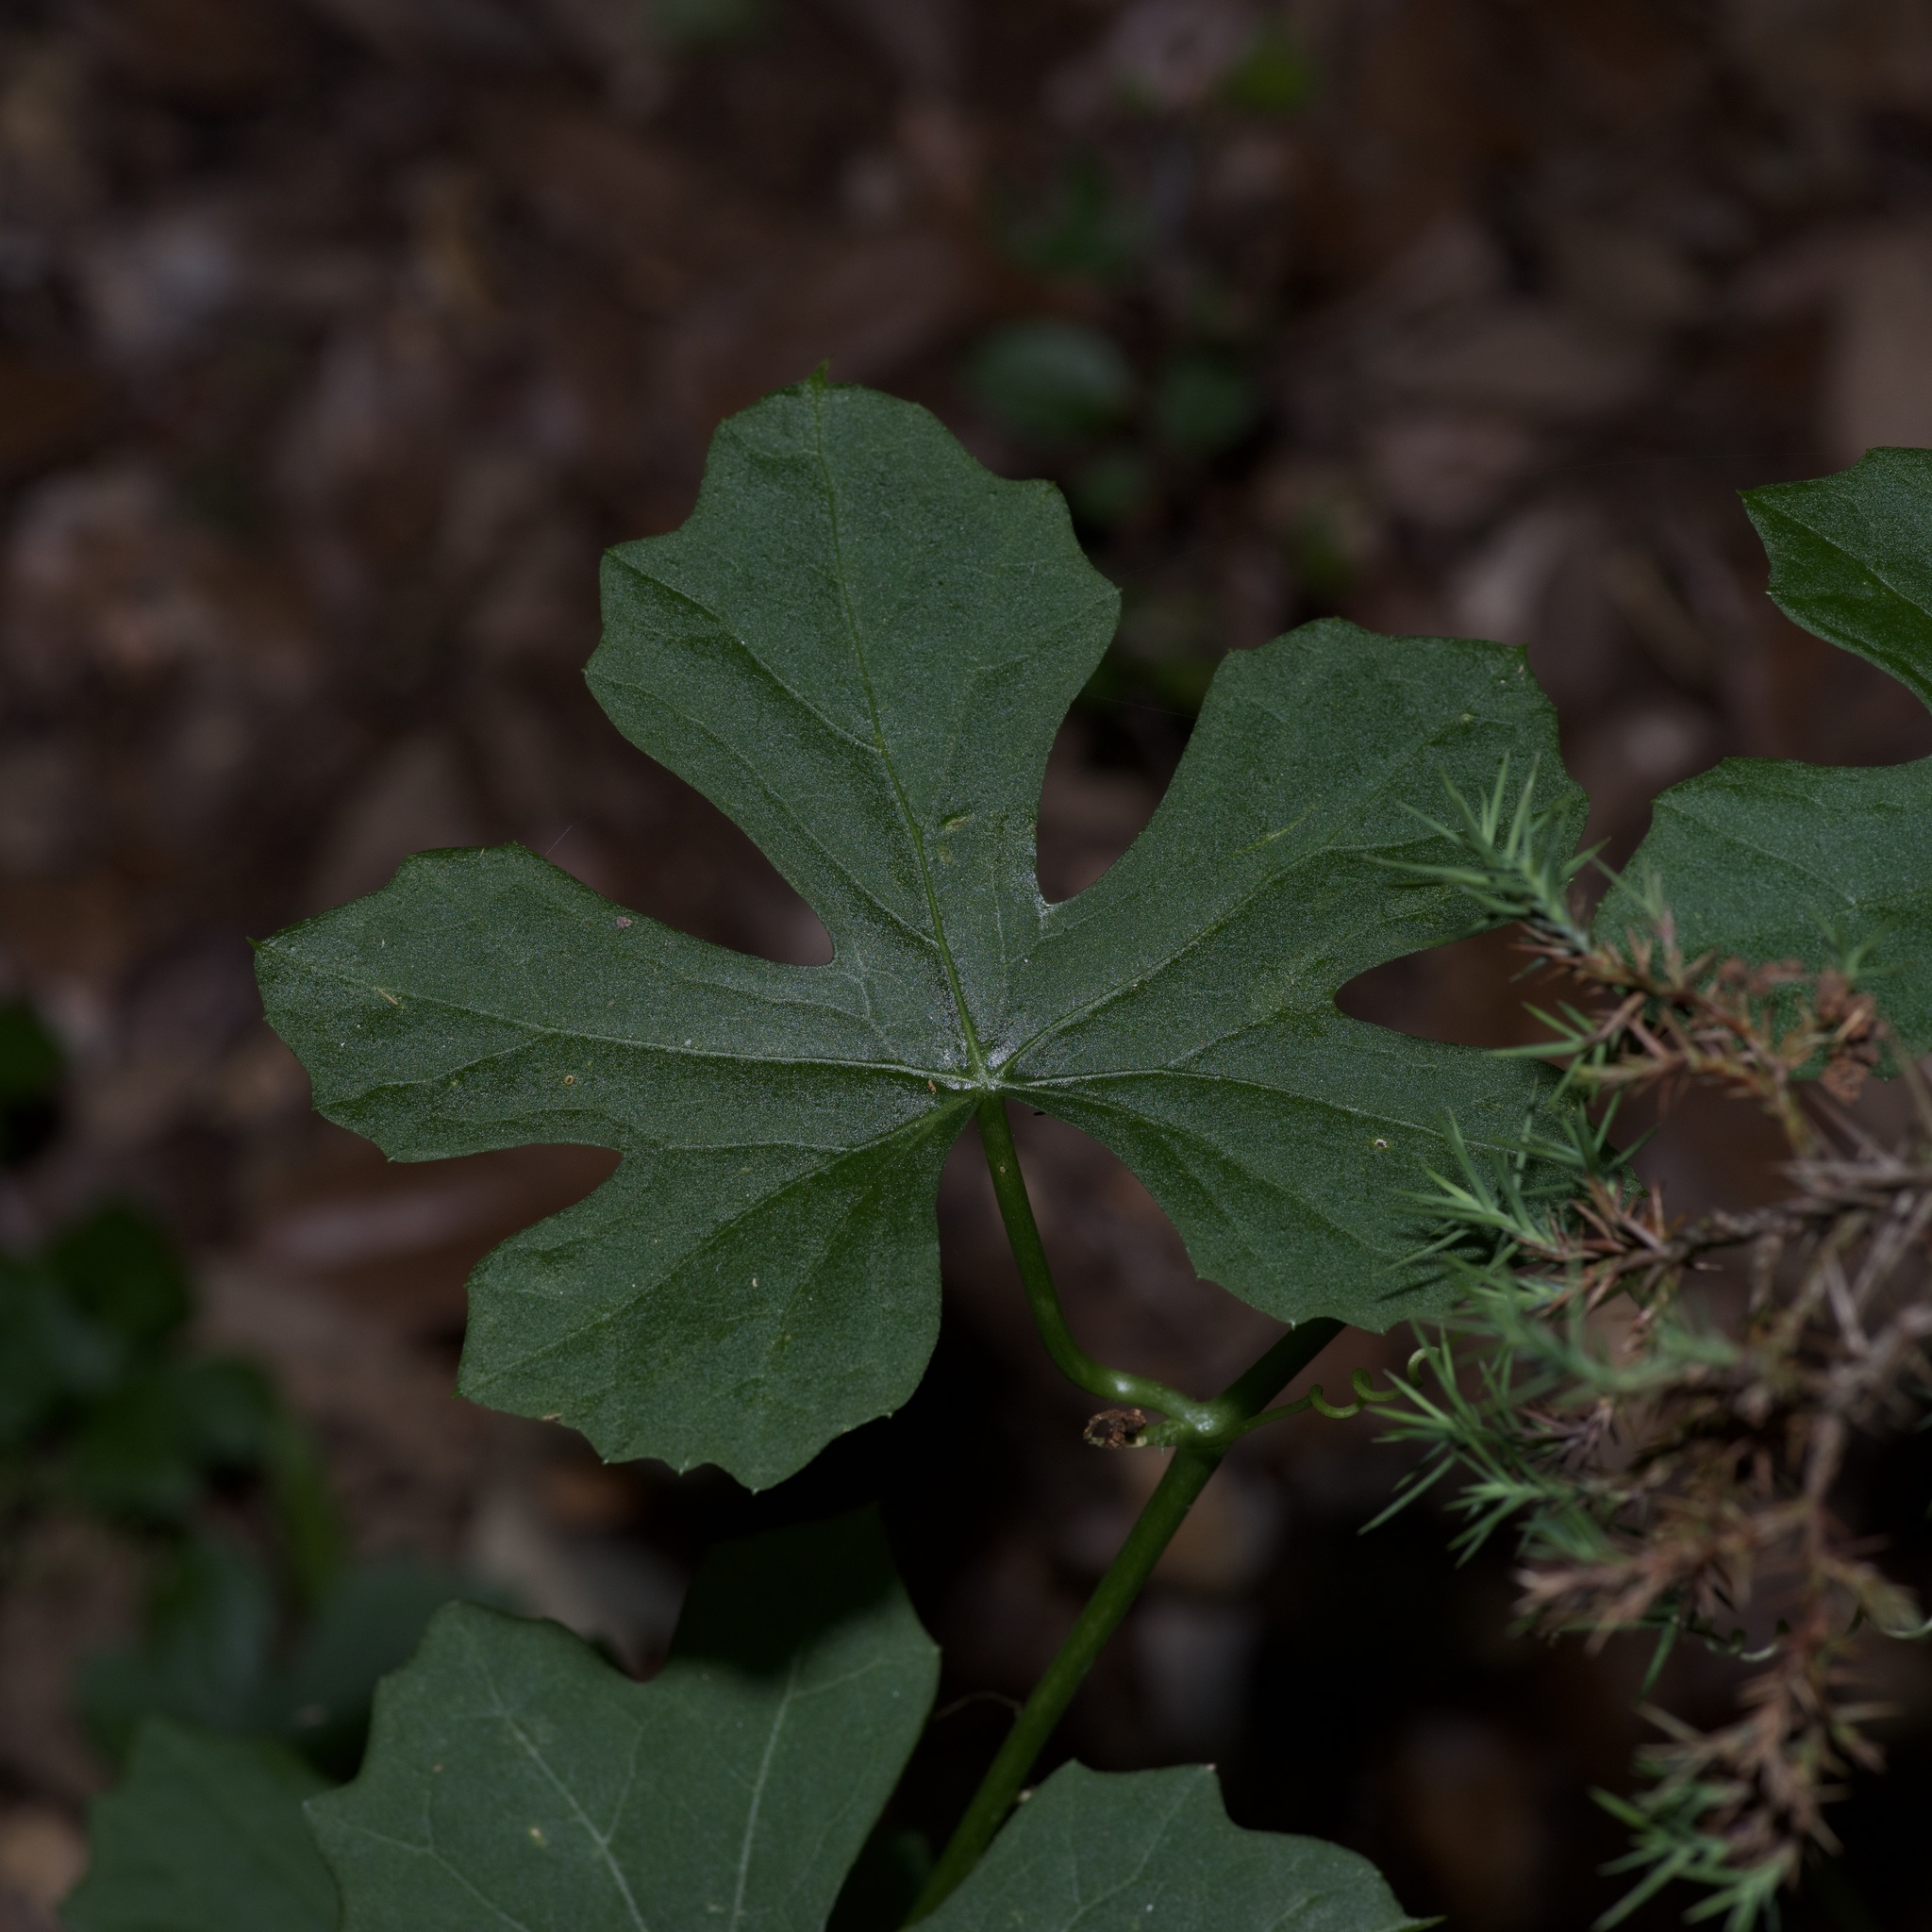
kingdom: Plantae
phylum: Tracheophyta
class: Magnoliopsida
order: Cucurbitales
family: Cucurbitaceae
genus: Ibervillea
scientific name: Ibervillea lindheimeri
